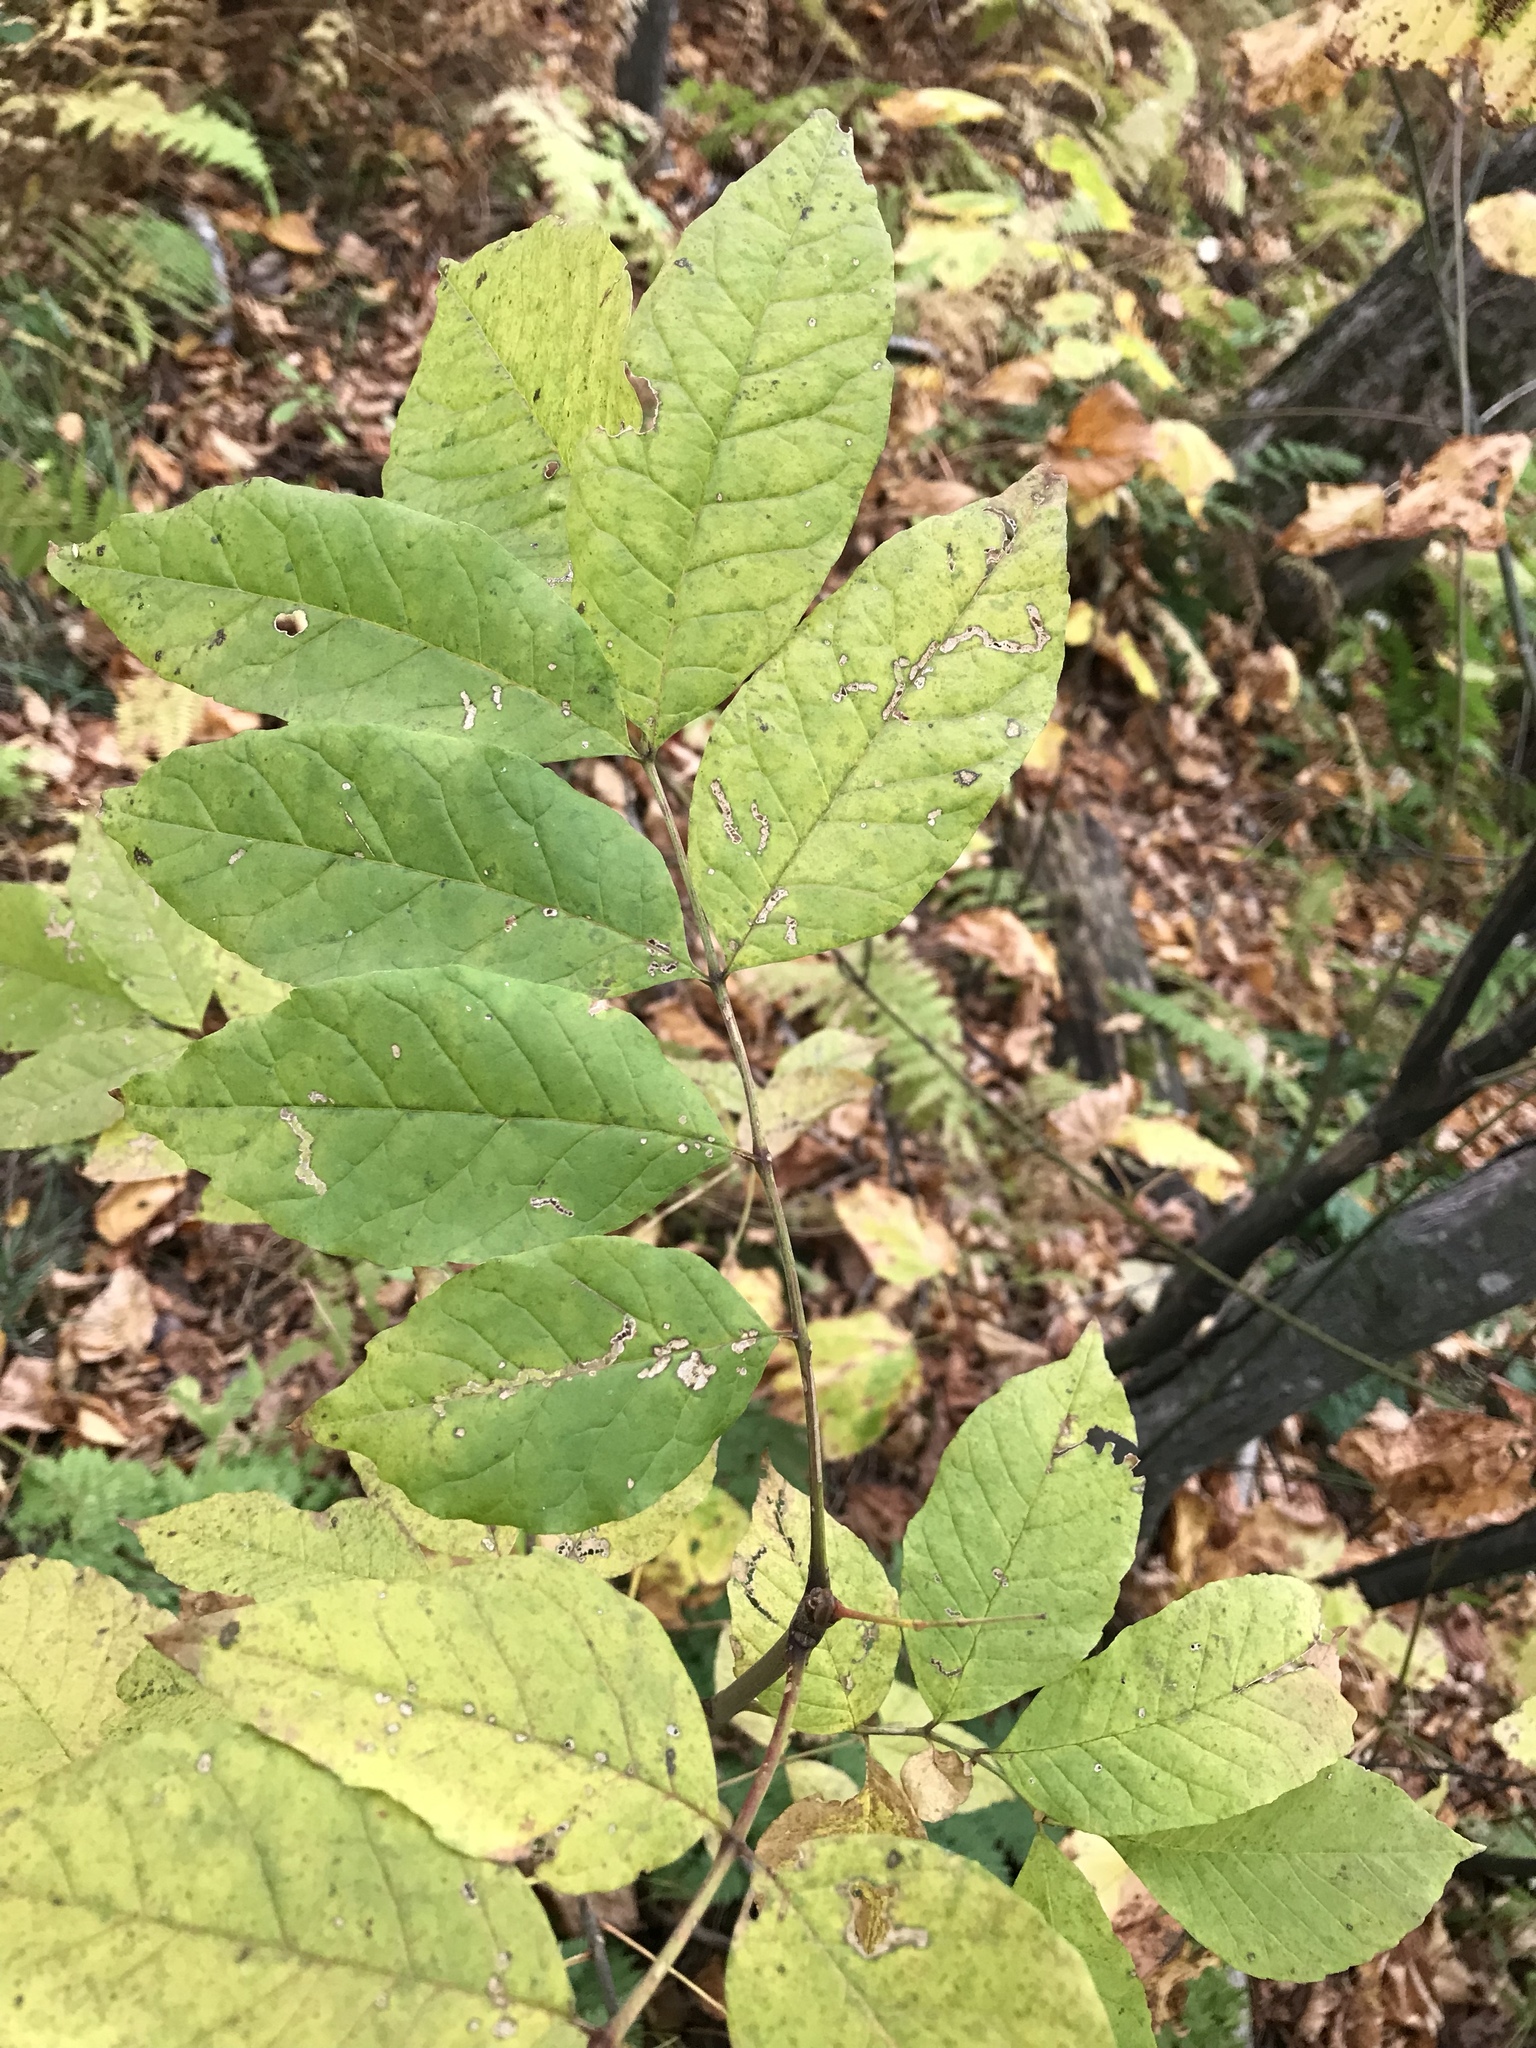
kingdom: Plantae
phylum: Tracheophyta
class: Magnoliopsida
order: Lamiales
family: Oleaceae
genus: Fraxinus
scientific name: Fraxinus americana
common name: White ash
